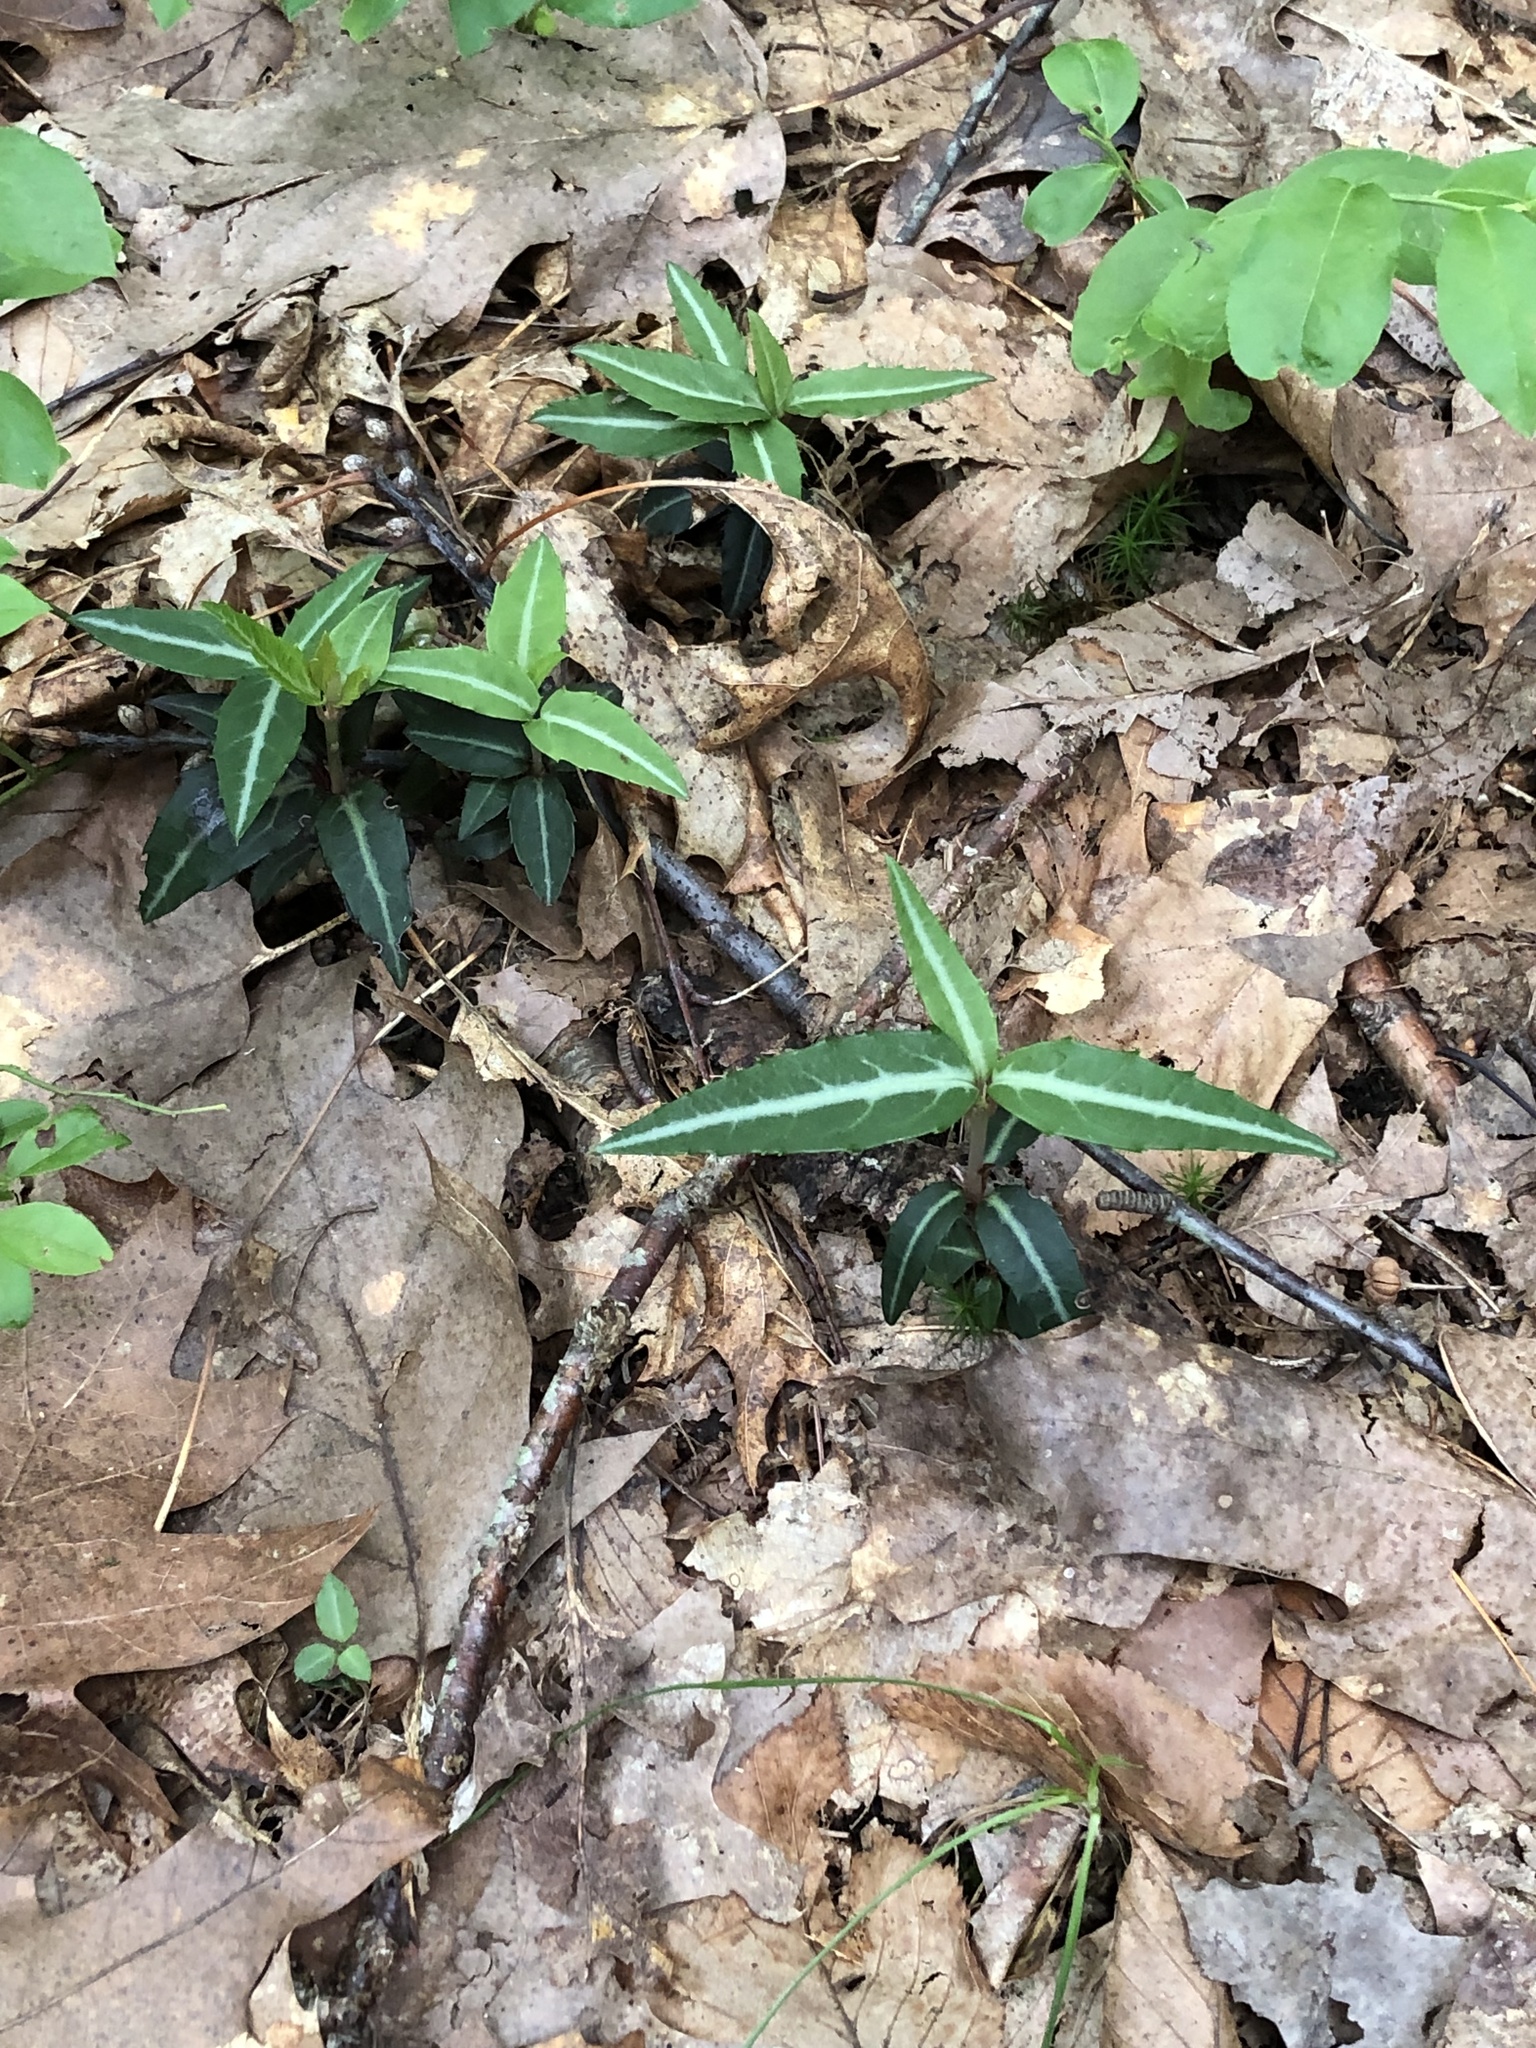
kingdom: Plantae
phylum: Tracheophyta
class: Magnoliopsida
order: Ericales
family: Ericaceae
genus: Chimaphila
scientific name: Chimaphila maculata
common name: Spotted pipsissewa
